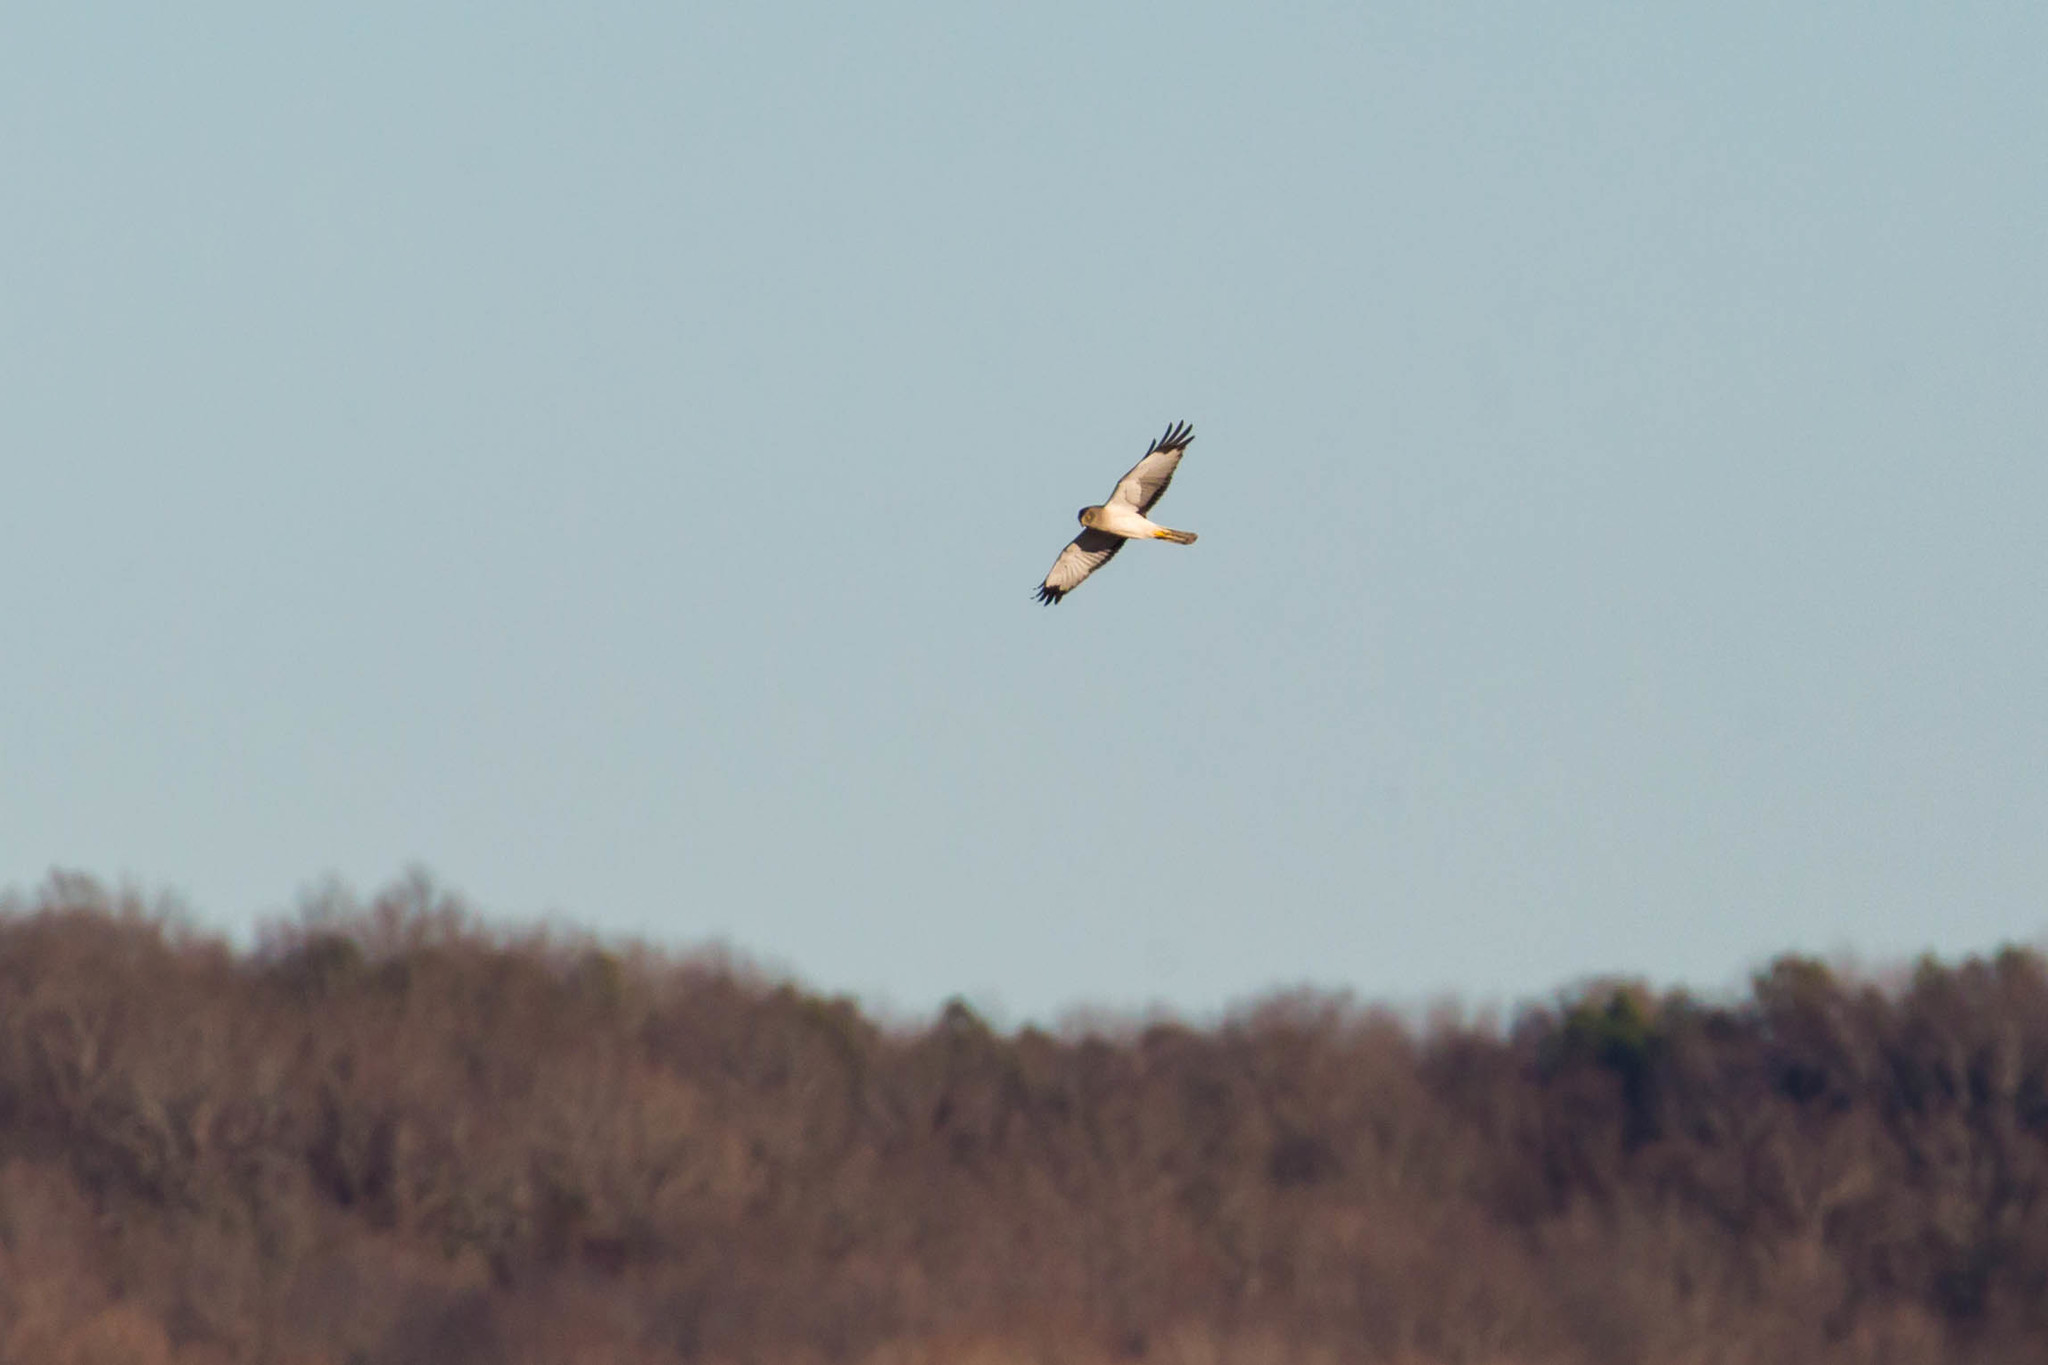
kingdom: Animalia
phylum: Chordata
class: Aves
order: Accipitriformes
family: Accipitridae
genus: Circus
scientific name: Circus cyaneus
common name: Hen harrier
